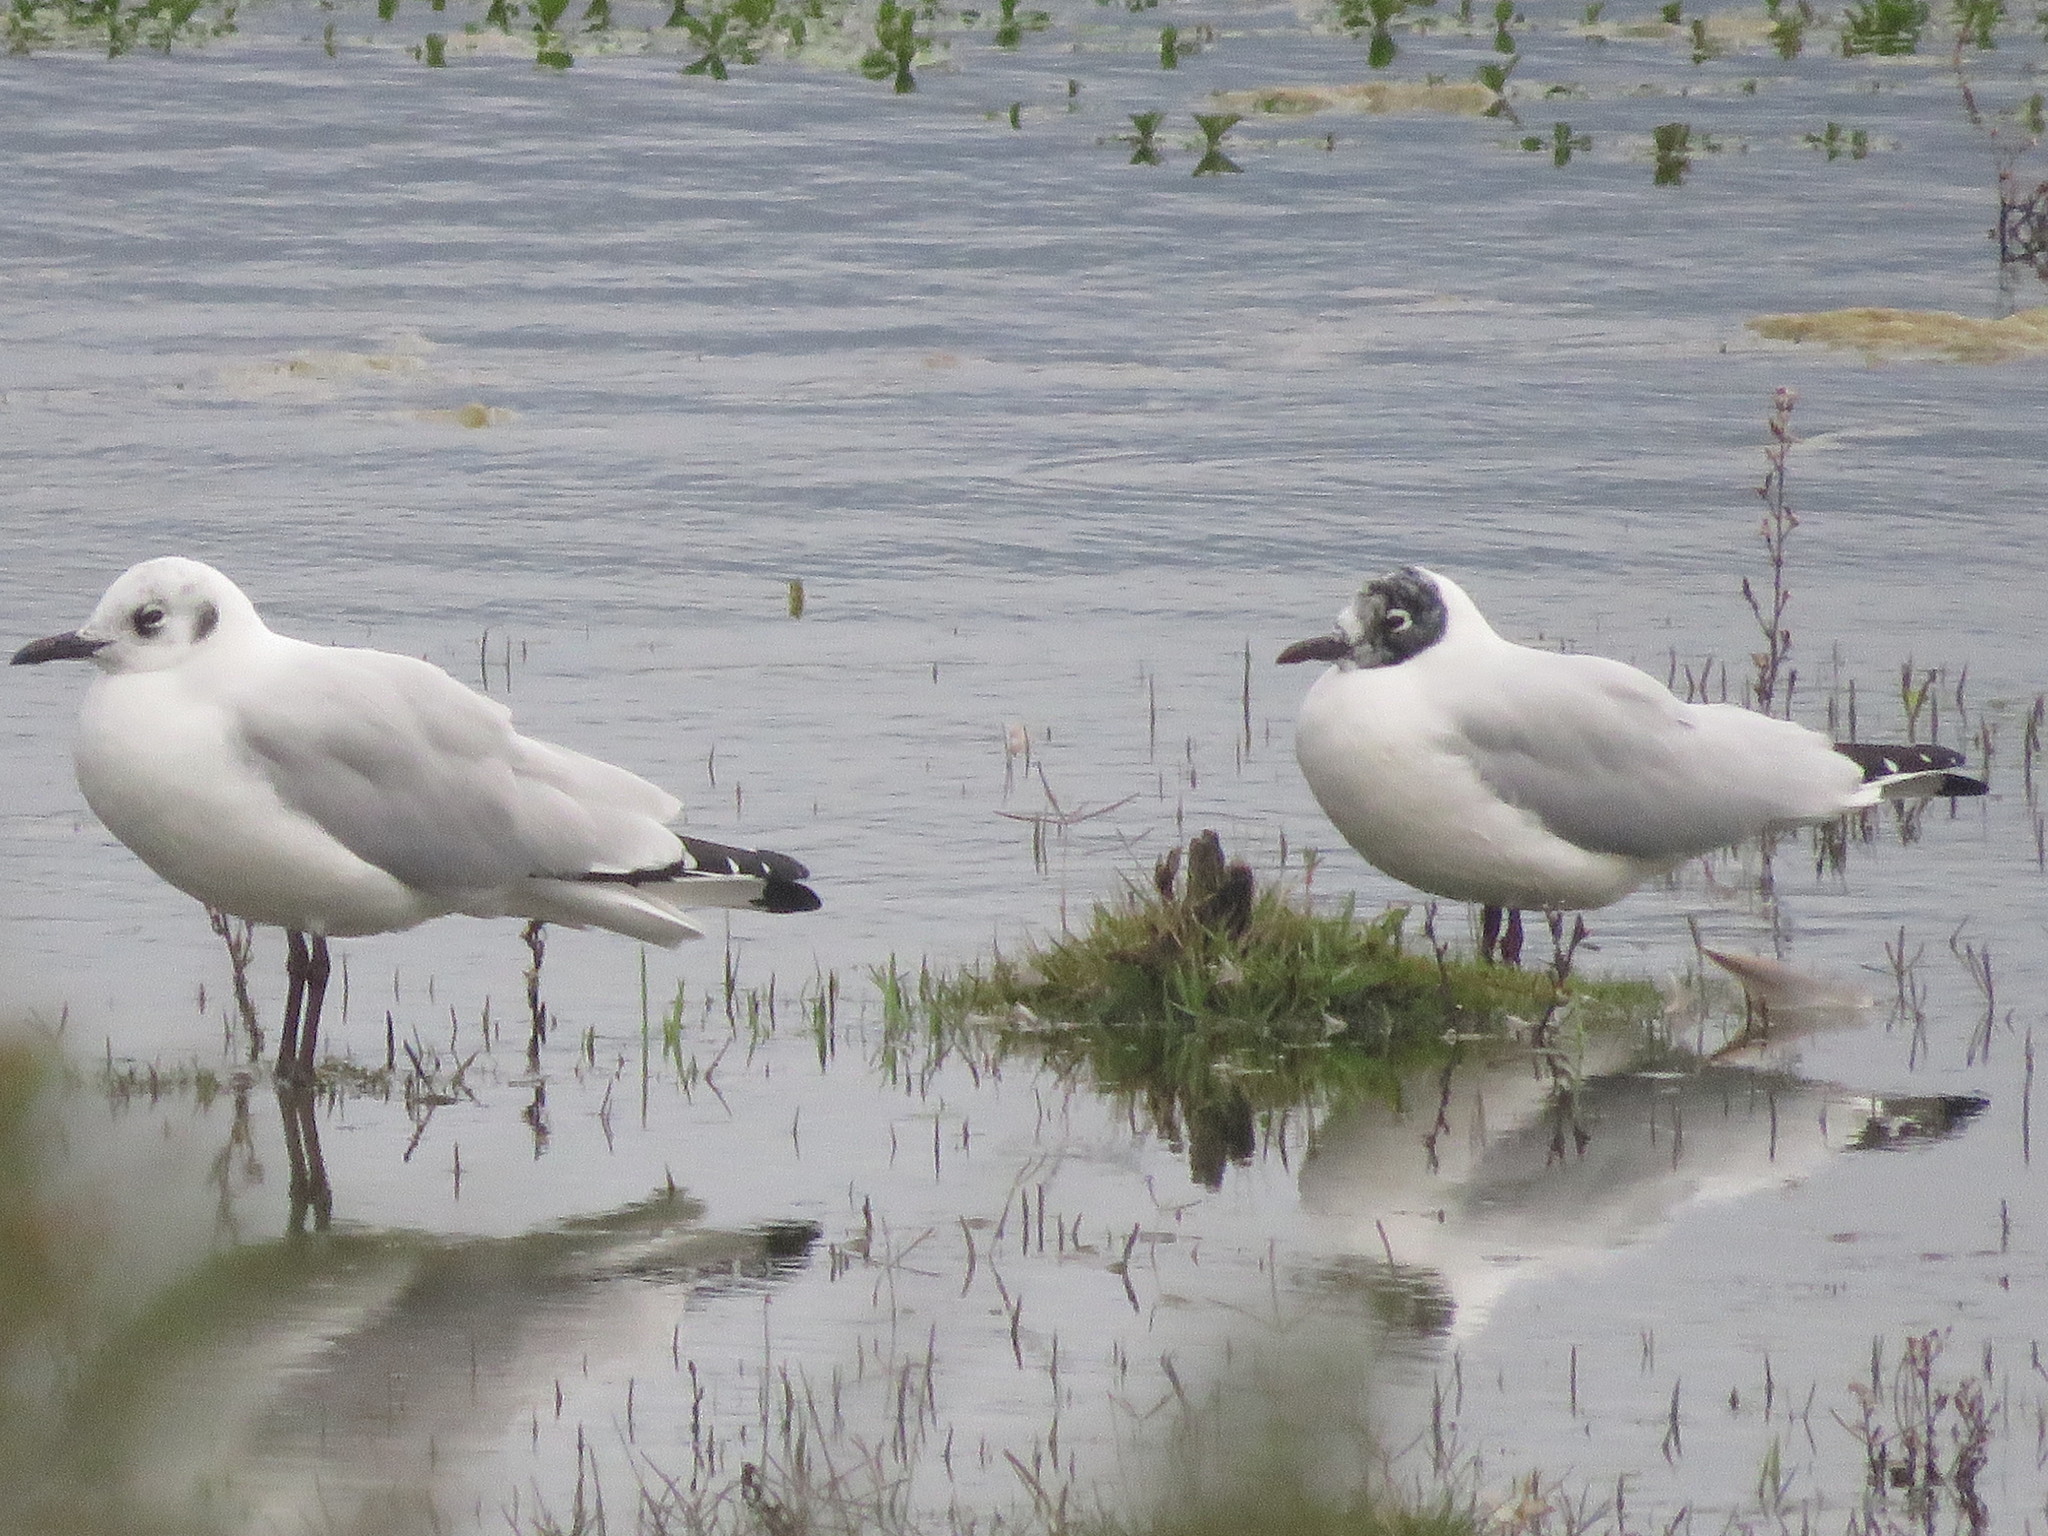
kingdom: Animalia
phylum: Chordata
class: Aves
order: Charadriiformes
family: Laridae
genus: Chroicocephalus
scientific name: Chroicocephalus serranus
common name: Andean gull
